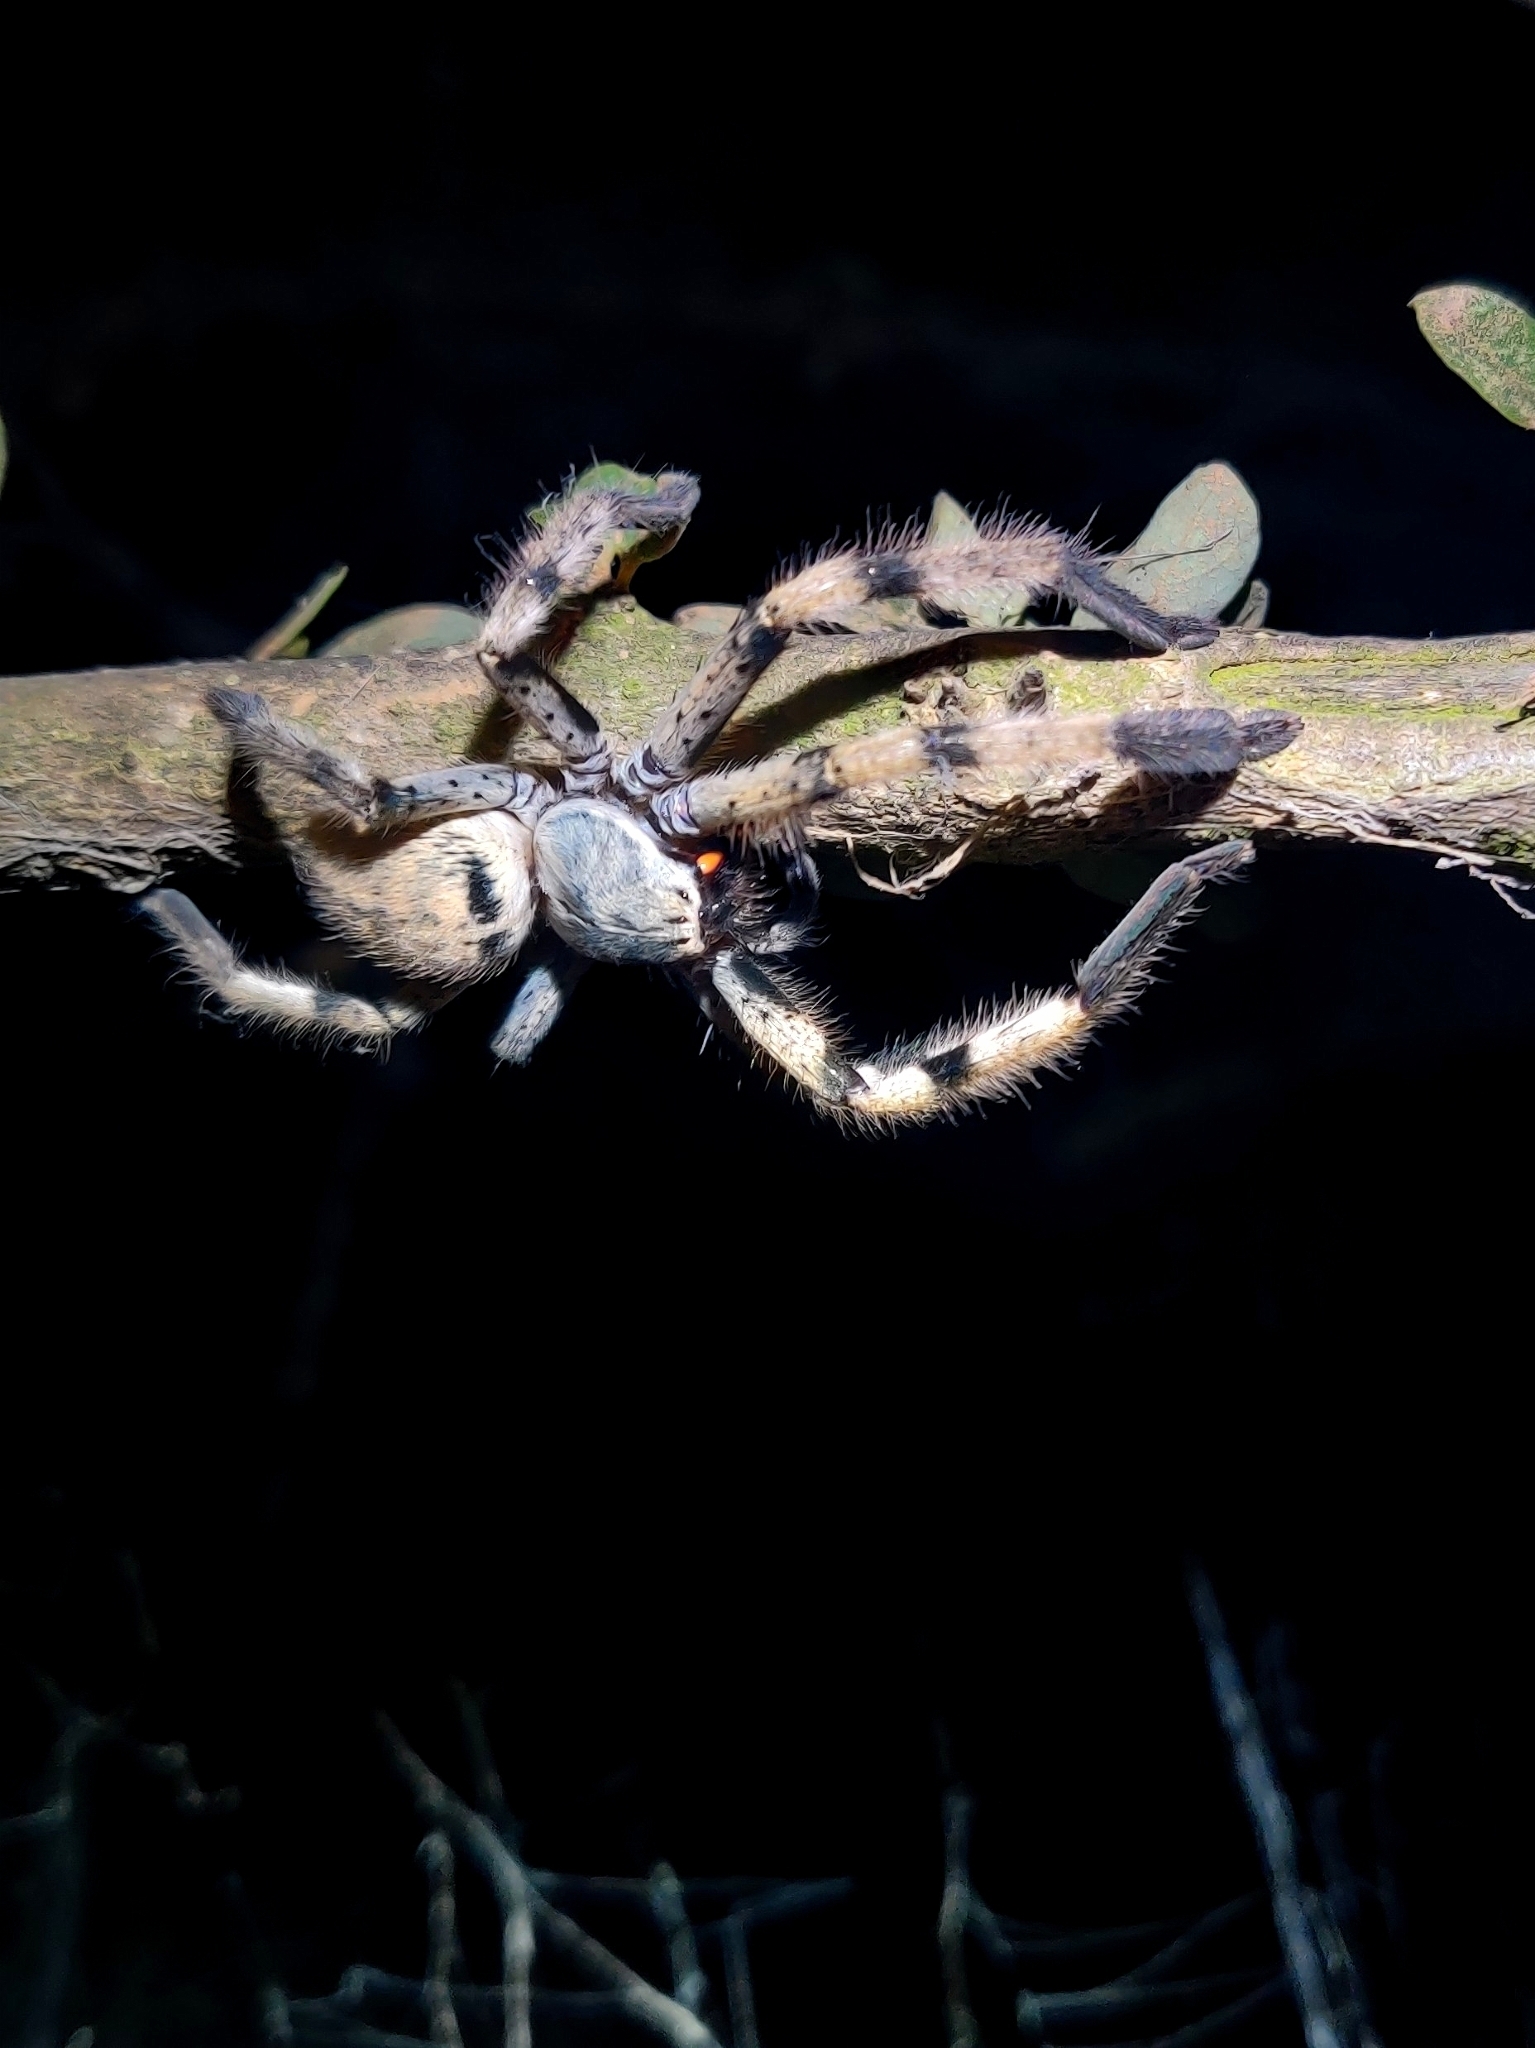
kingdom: Animalia
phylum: Arthropoda
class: Arachnida
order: Araneae
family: Sparassidae
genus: Olios
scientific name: Olios lamarcki
